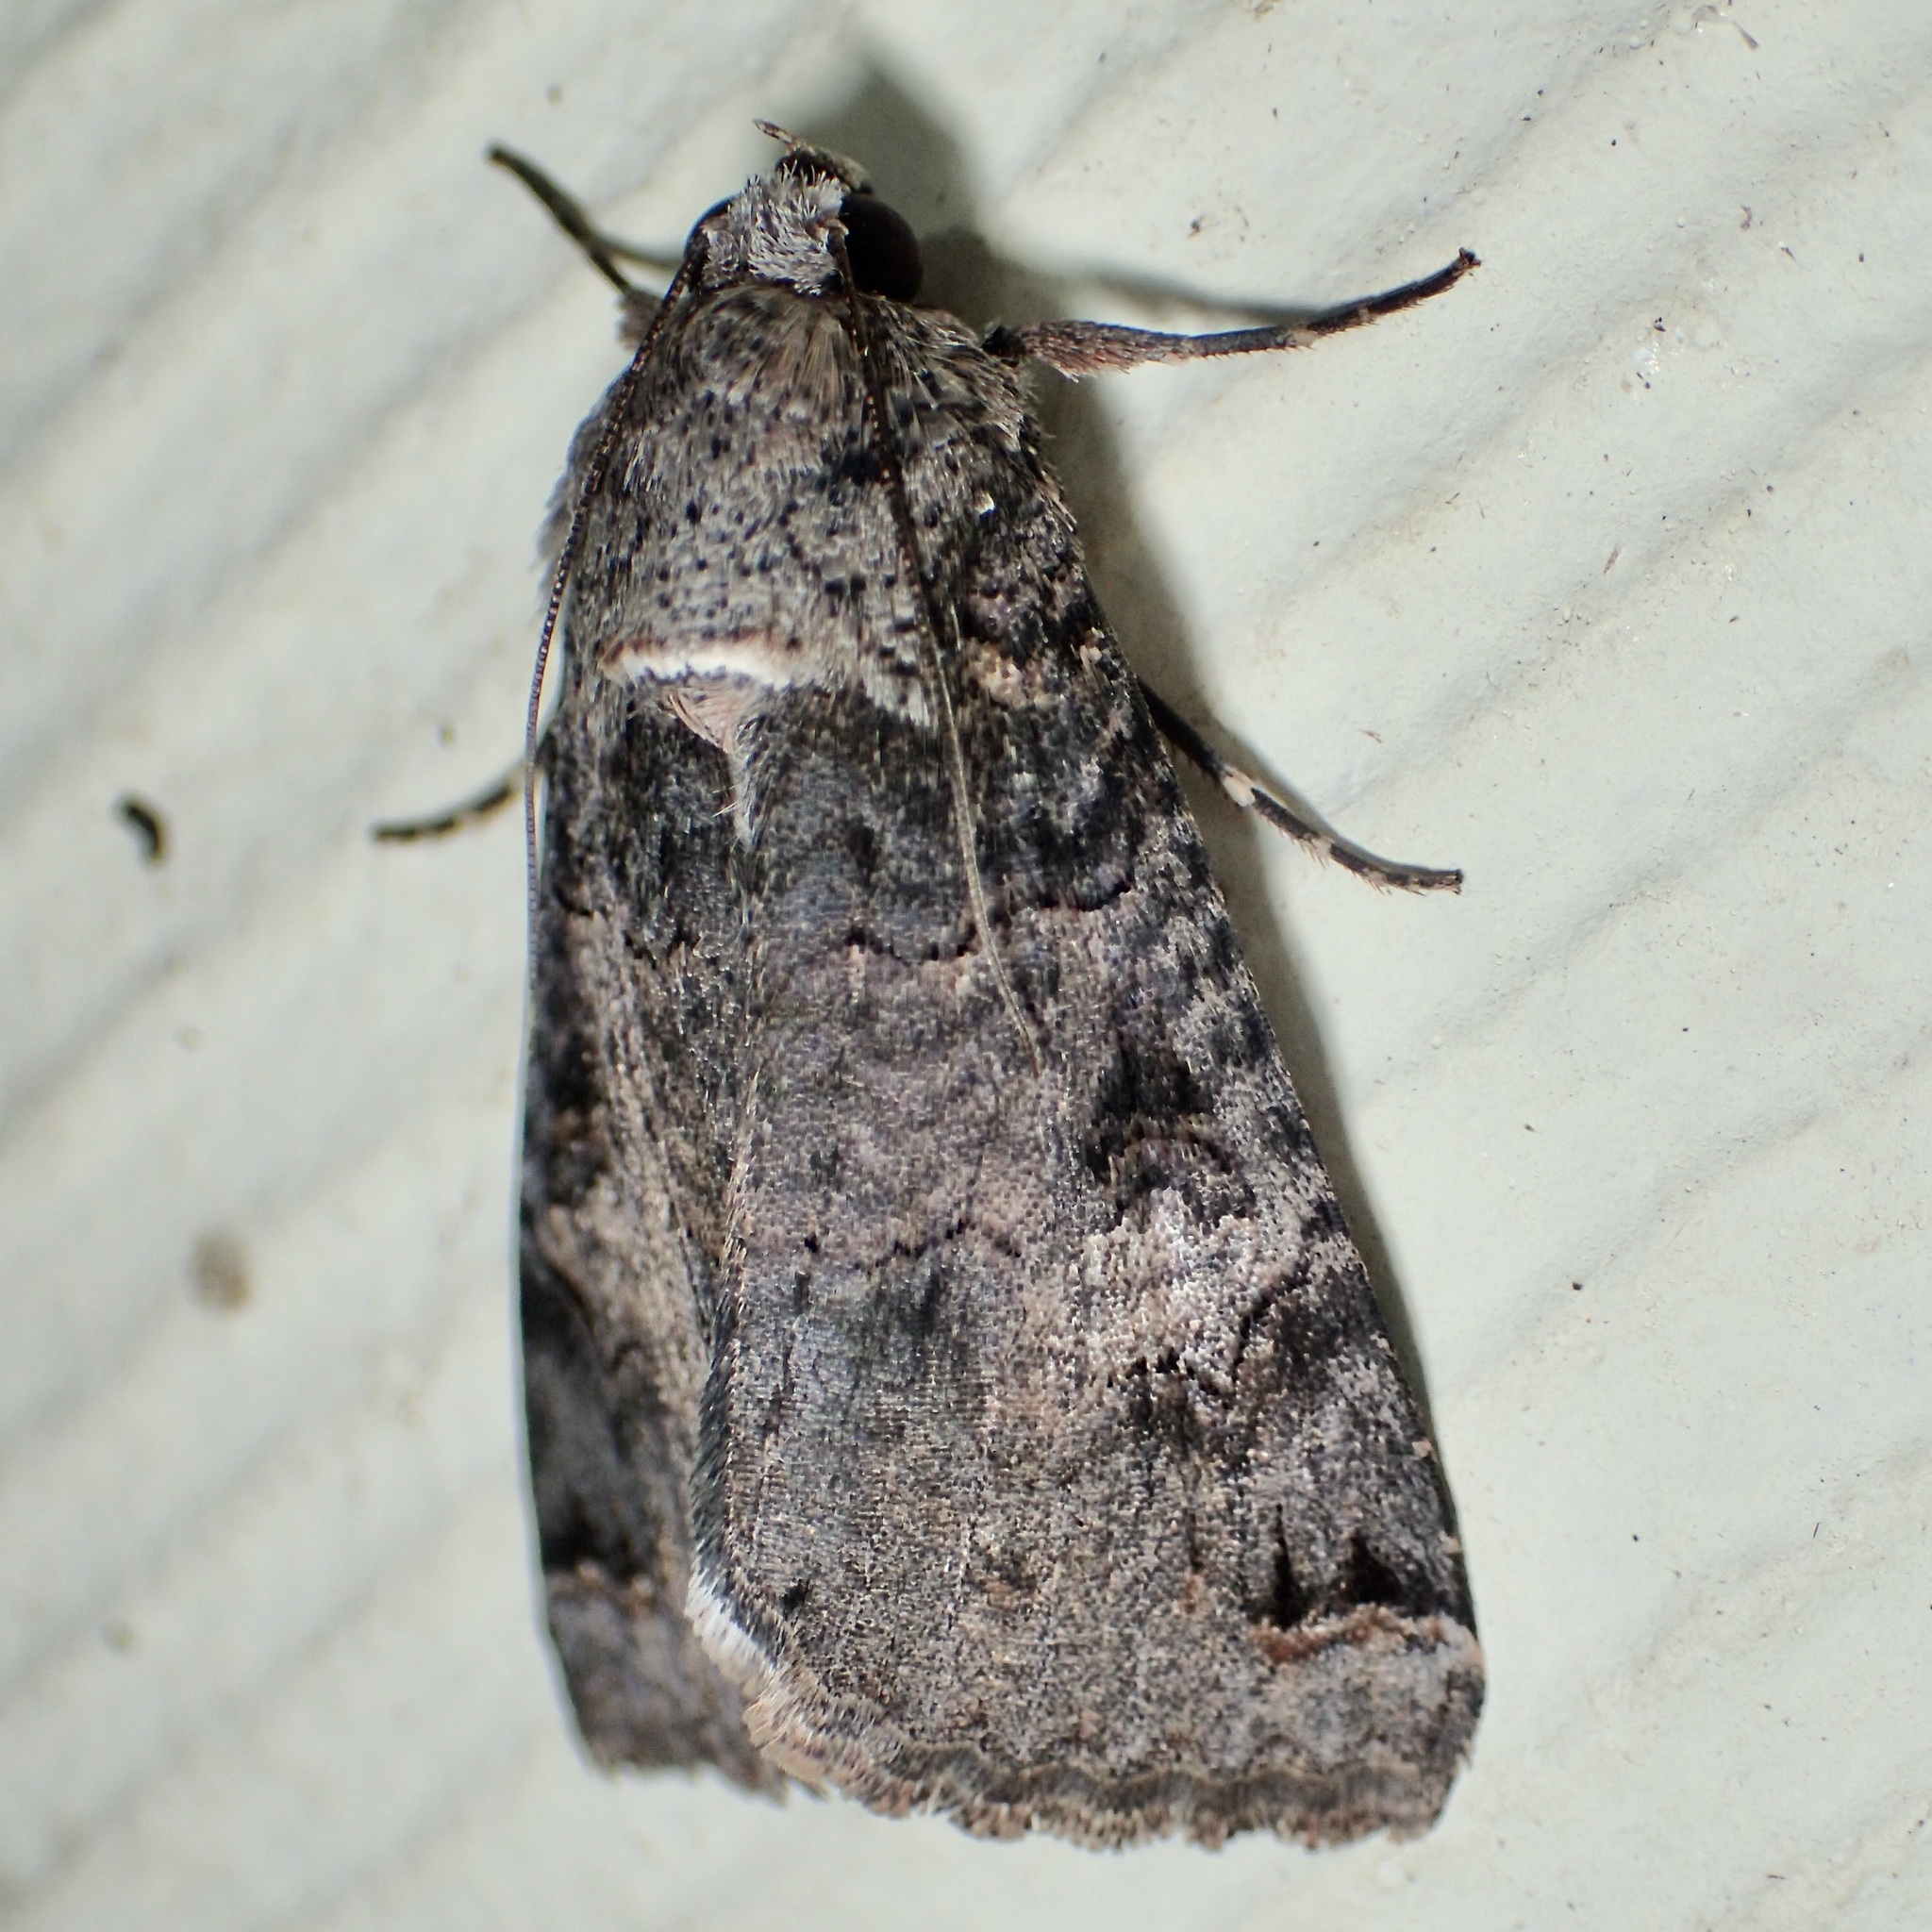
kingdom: Animalia
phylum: Arthropoda
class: Insecta
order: Lepidoptera
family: Erebidae
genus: Melipotis
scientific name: Melipotis novanda
